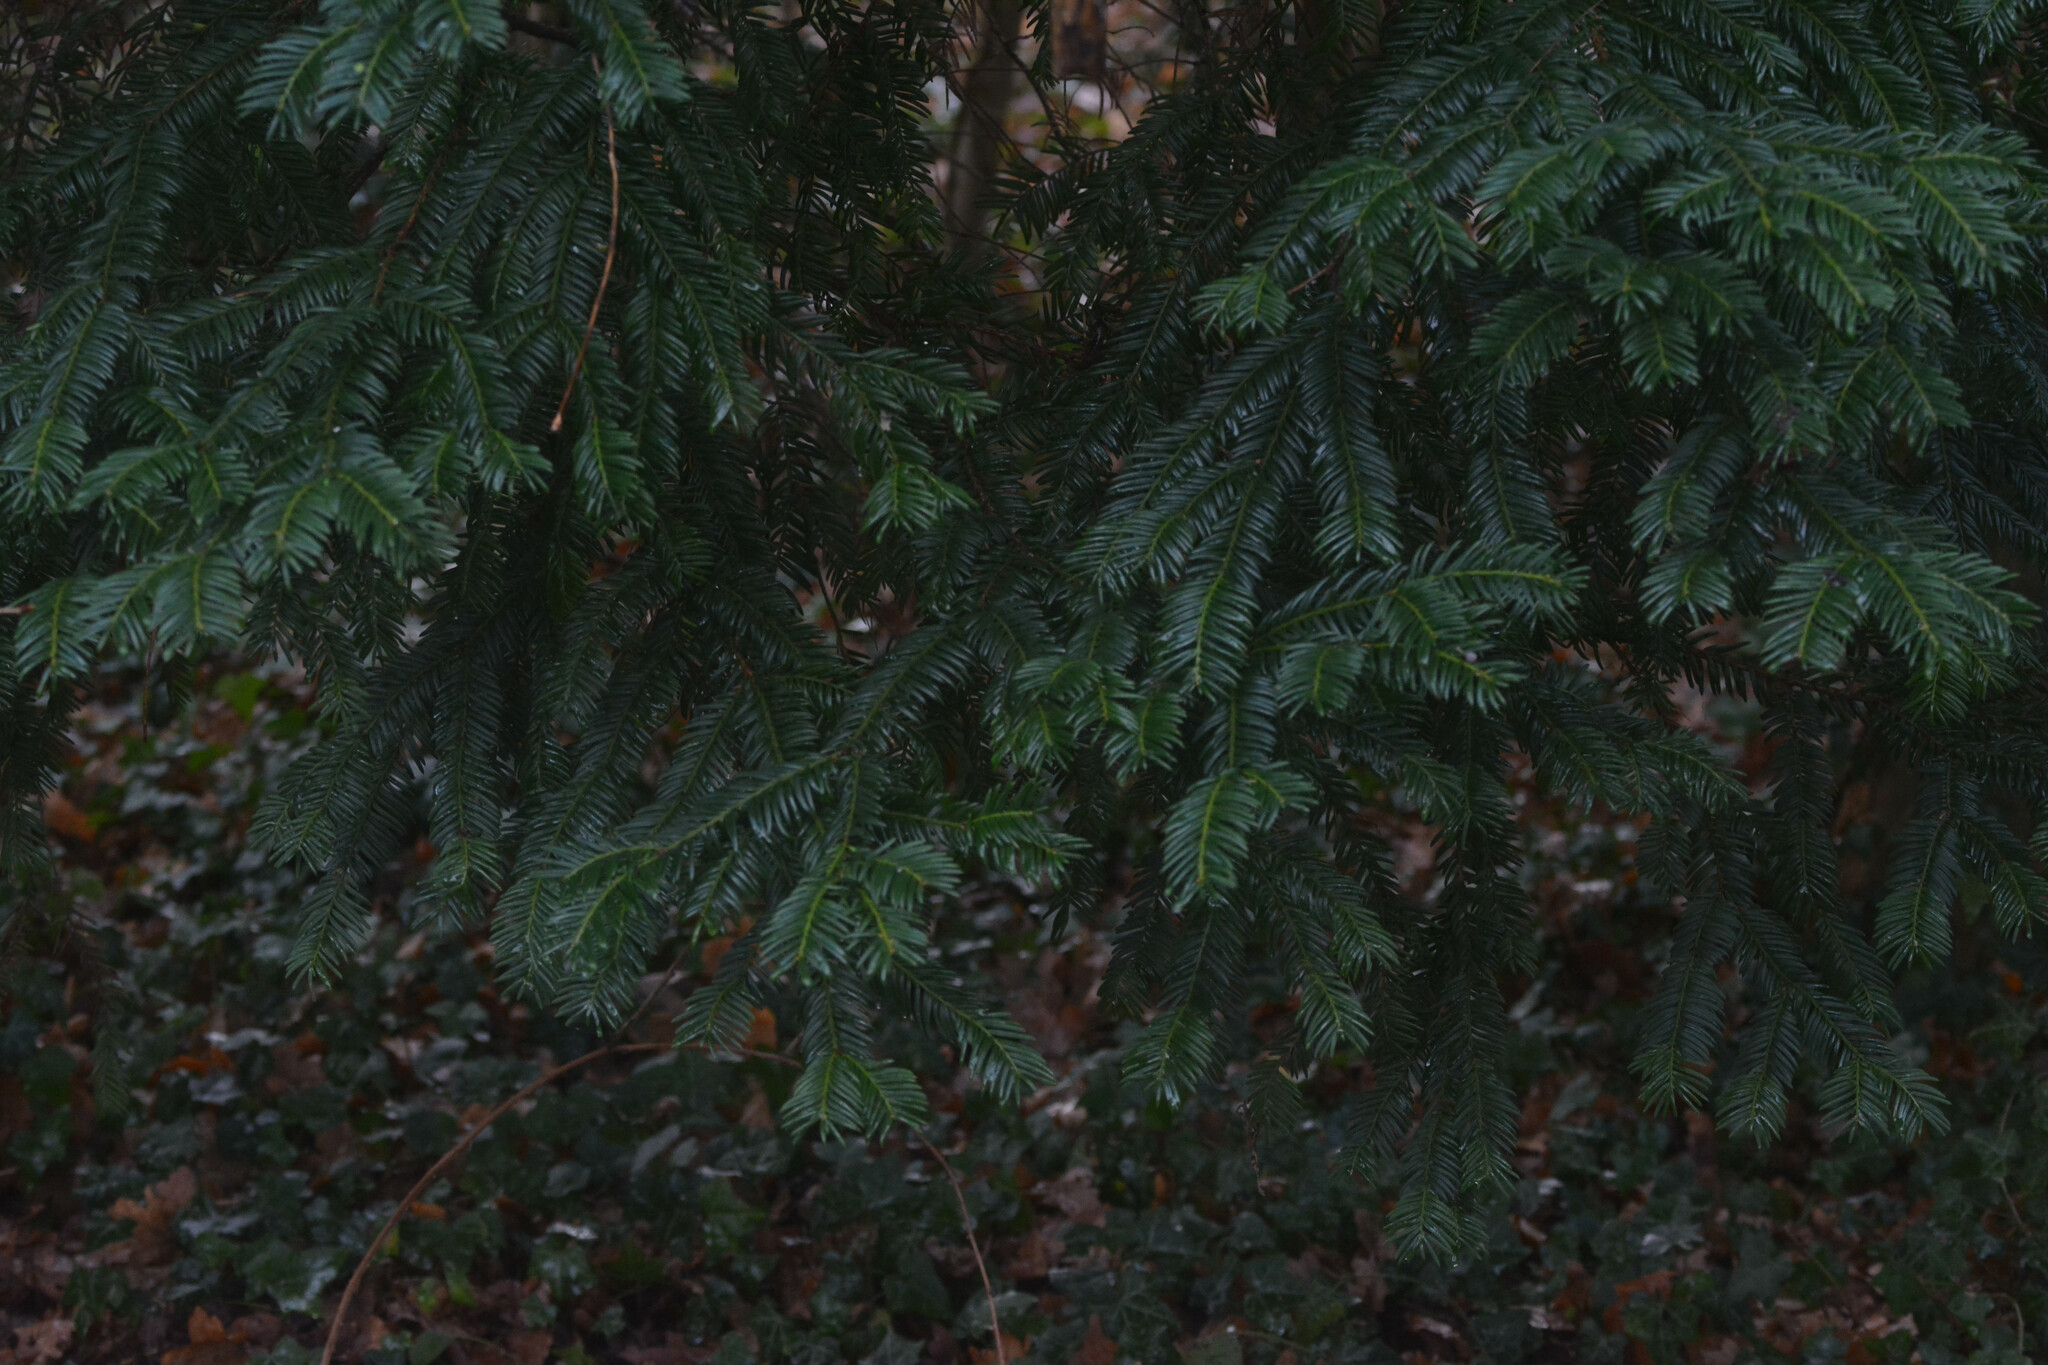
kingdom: Plantae
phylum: Tracheophyta
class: Pinopsida
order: Pinales
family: Taxaceae
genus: Taxus
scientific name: Taxus baccata
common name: Yew
